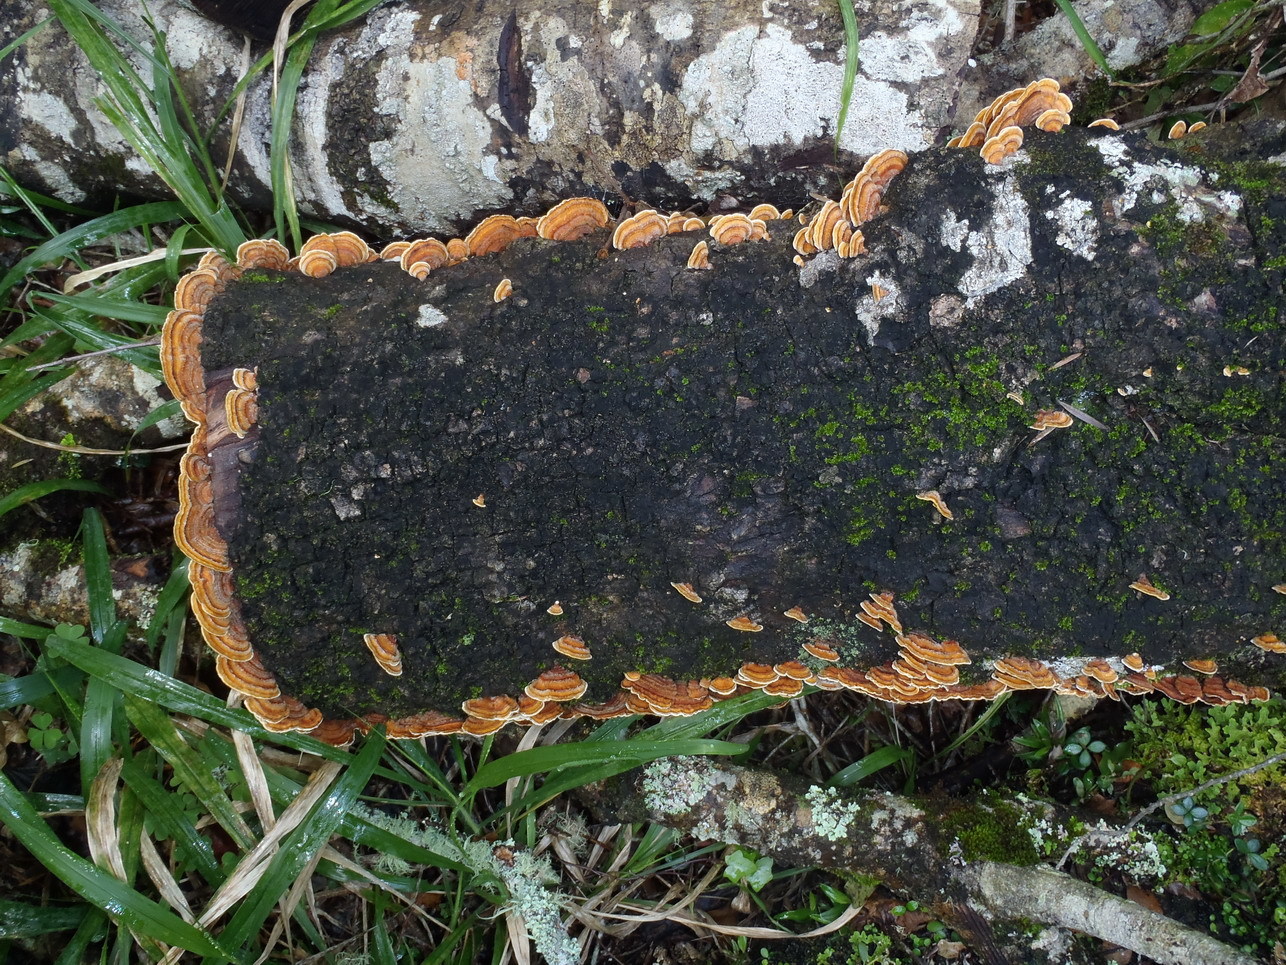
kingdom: Fungi
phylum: Basidiomycota
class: Agaricomycetes
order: Russulales
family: Stereaceae
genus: Stereum
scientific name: Stereum hirsutum
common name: Hairy curtain crust
